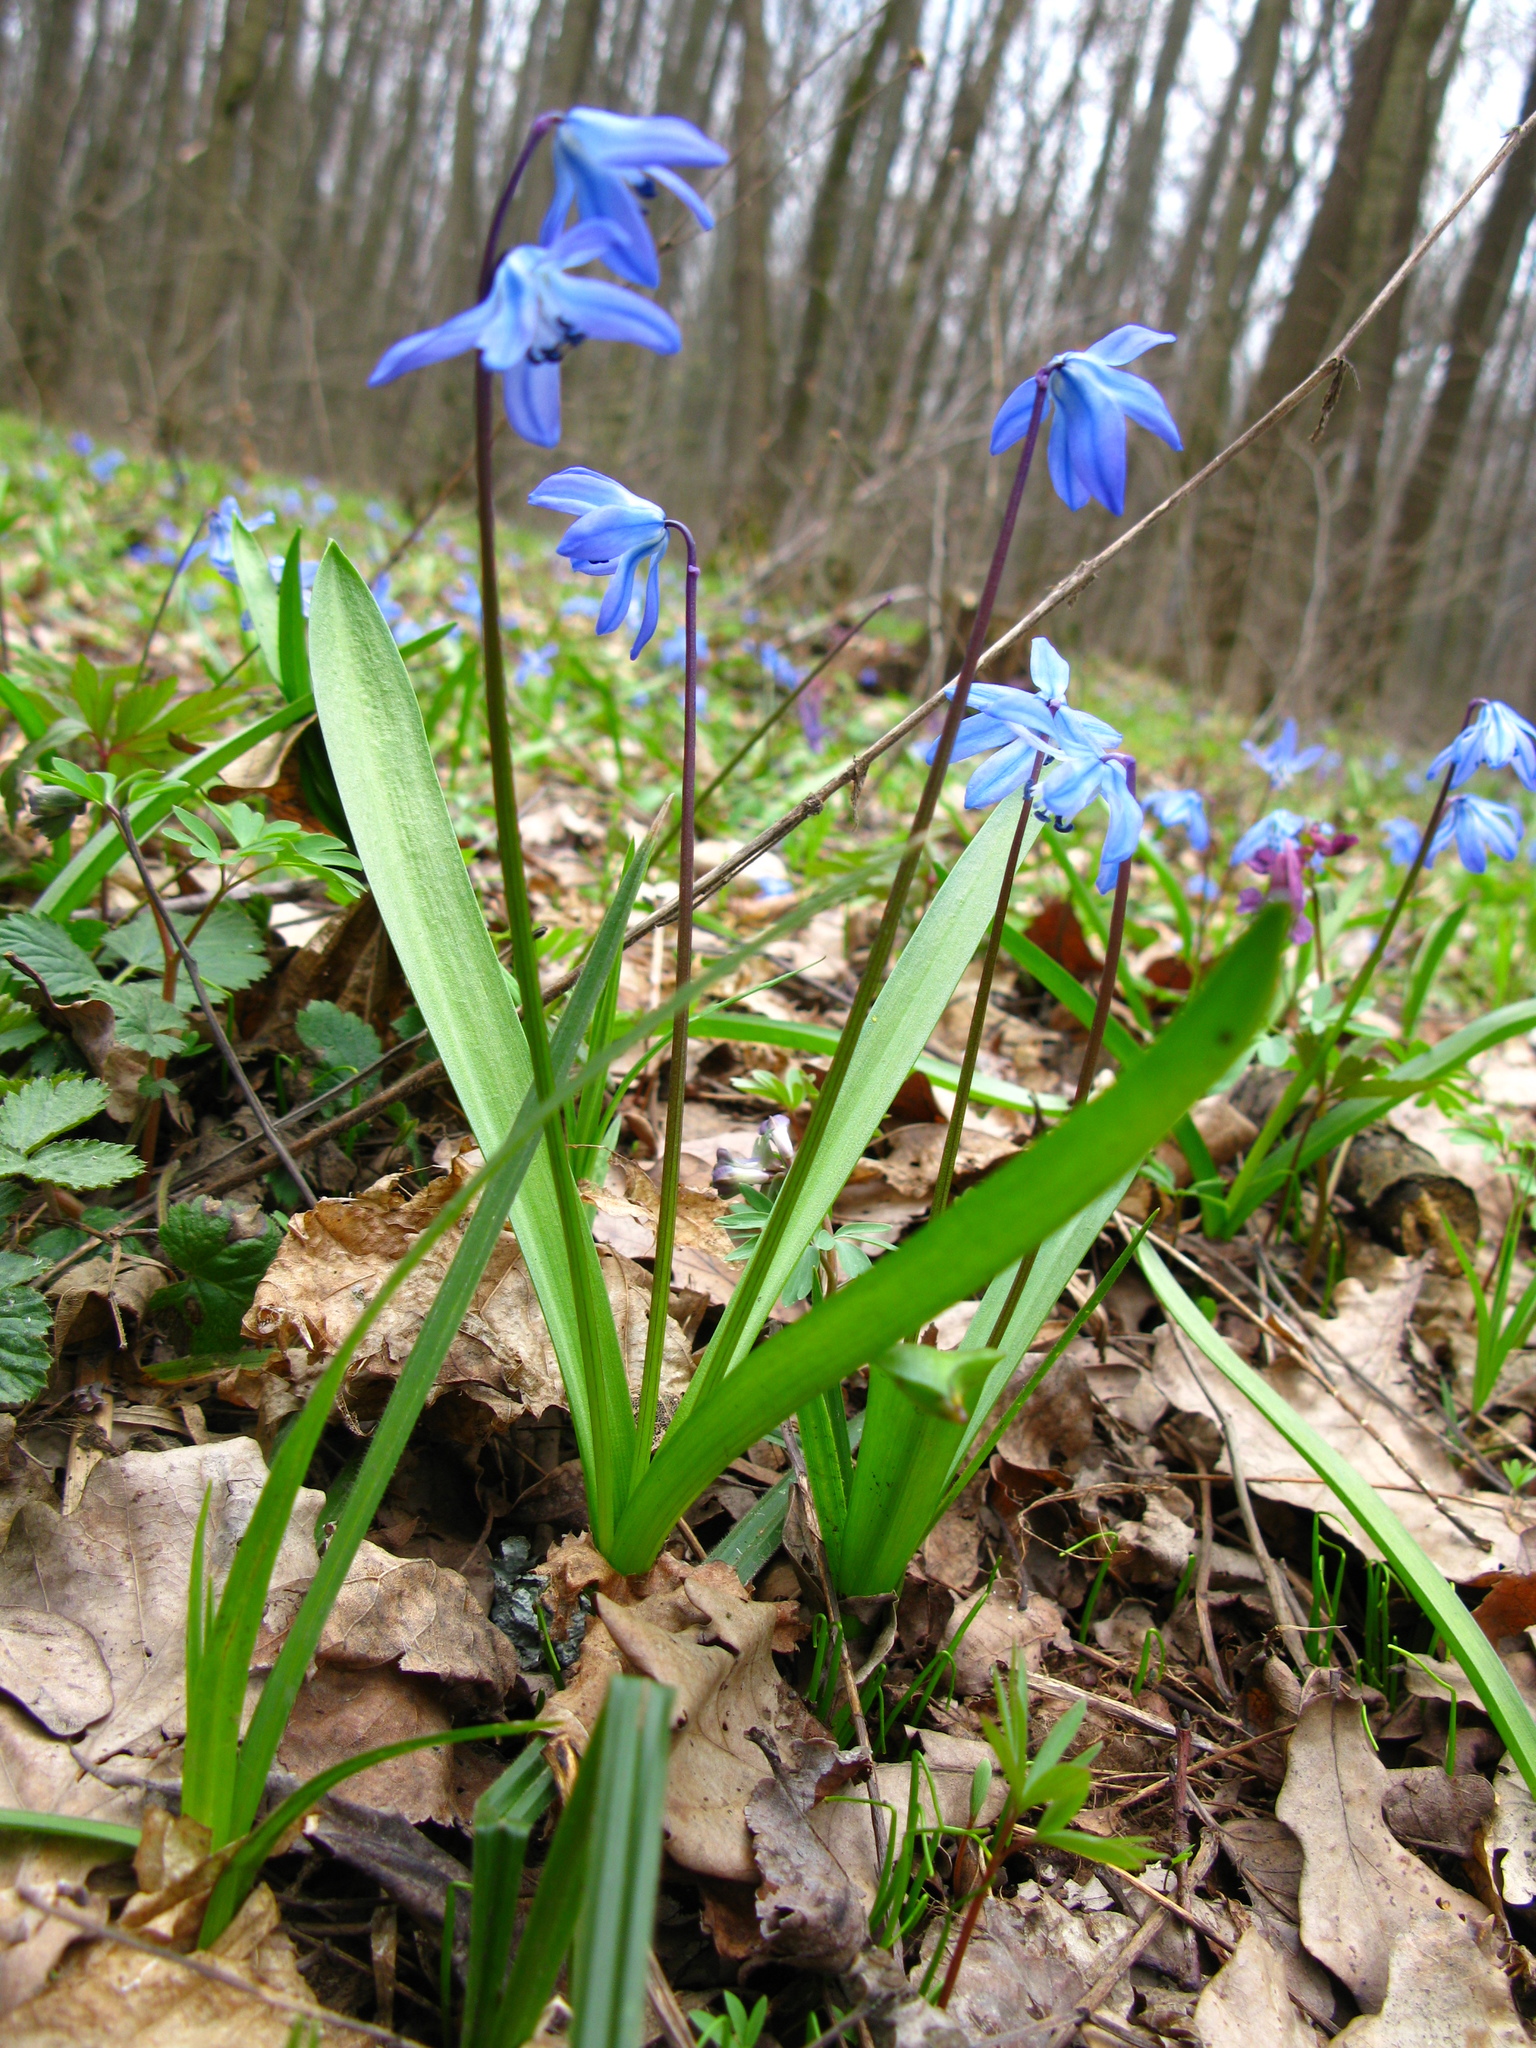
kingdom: Plantae
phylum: Tracheophyta
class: Liliopsida
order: Asparagales
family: Asparagaceae
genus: Scilla
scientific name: Scilla siberica
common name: Siberian squill
